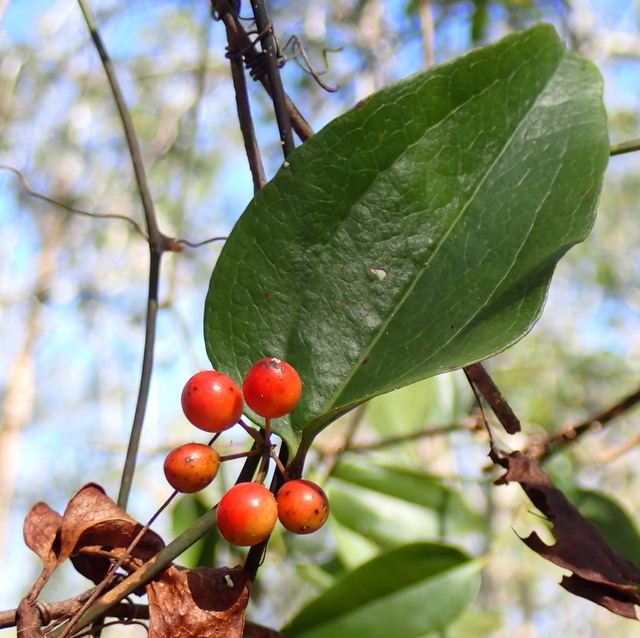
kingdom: Plantae
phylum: Tracheophyta
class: Liliopsida
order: Liliales
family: Smilacaceae
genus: Smilax
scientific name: Smilax walteri
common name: Coral greenbrier
